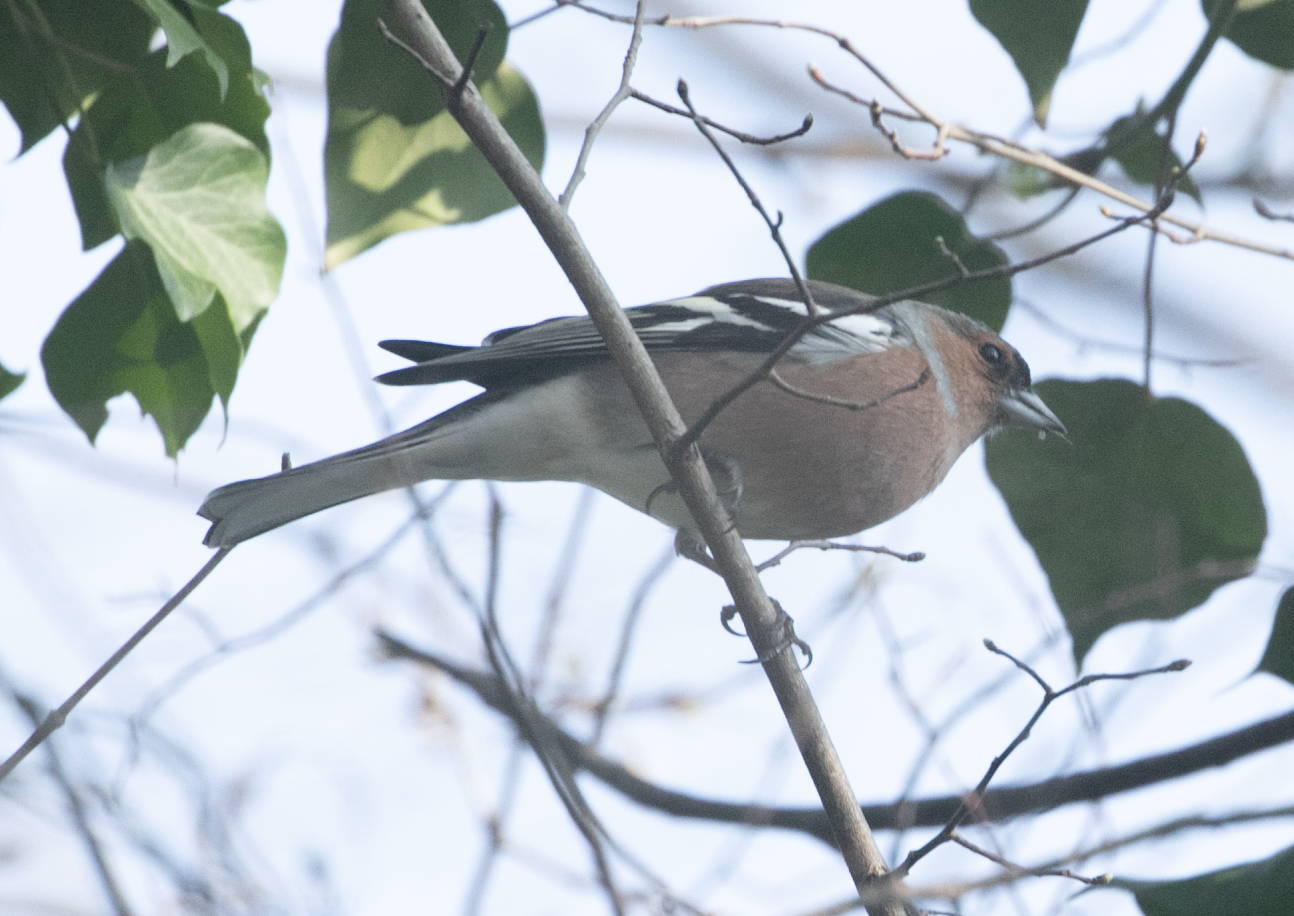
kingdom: Animalia
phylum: Chordata
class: Aves
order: Passeriformes
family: Fringillidae
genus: Fringilla
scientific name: Fringilla coelebs
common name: Common chaffinch
